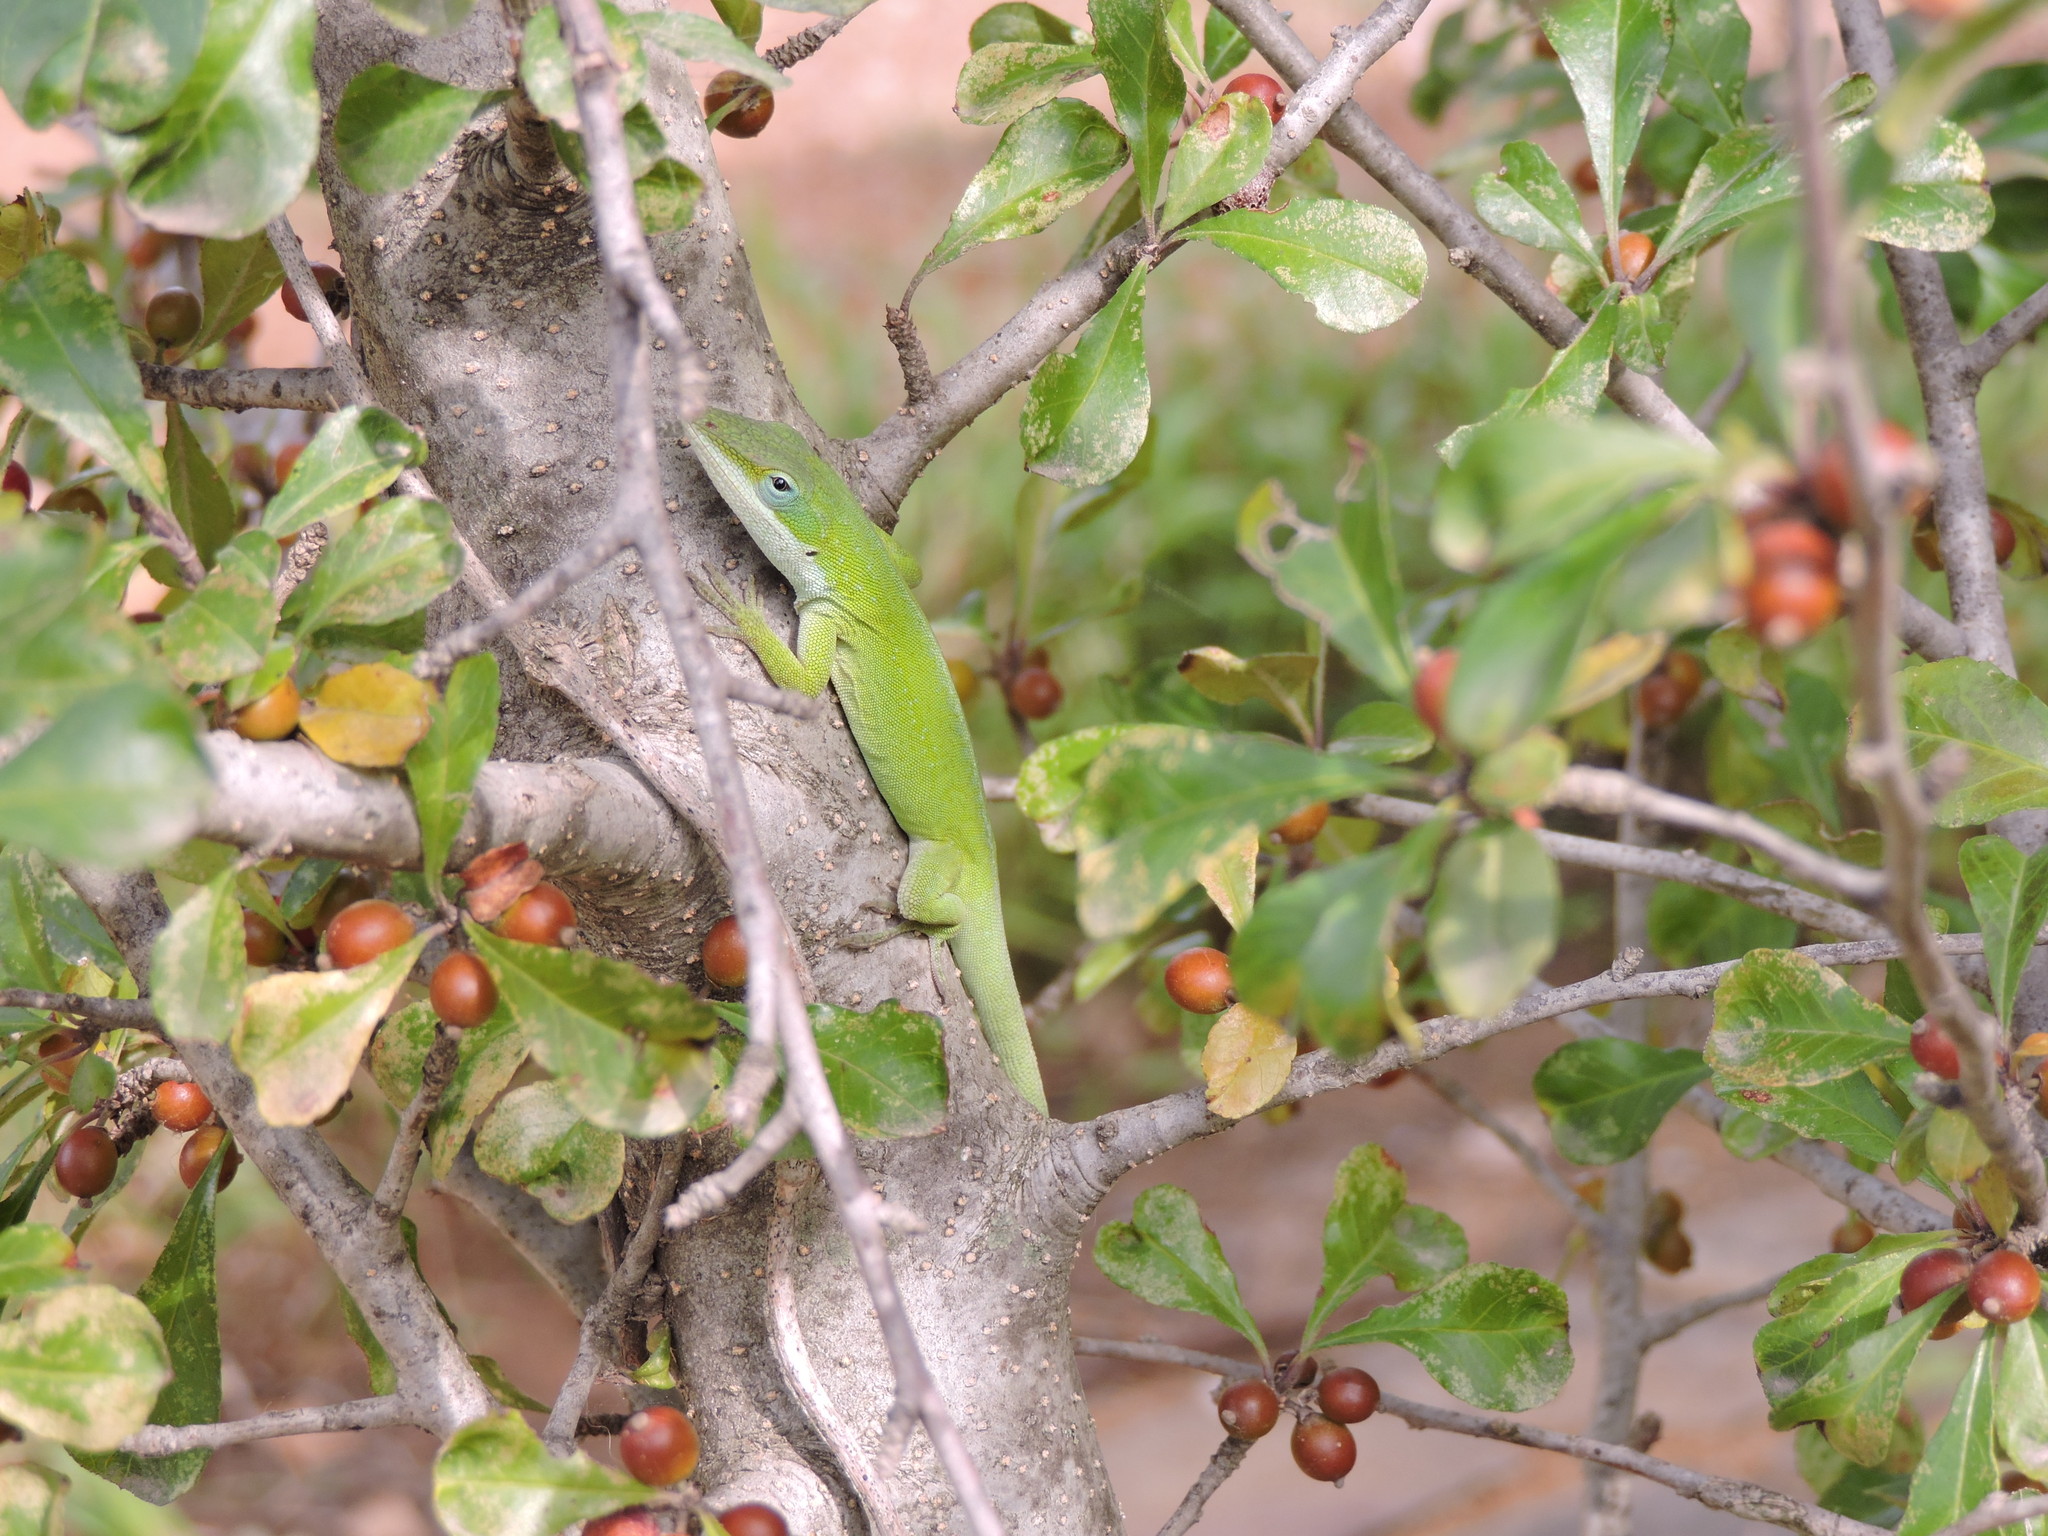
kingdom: Animalia
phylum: Chordata
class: Squamata
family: Dactyloidae
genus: Anolis
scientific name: Anolis carolinensis
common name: Green anole
